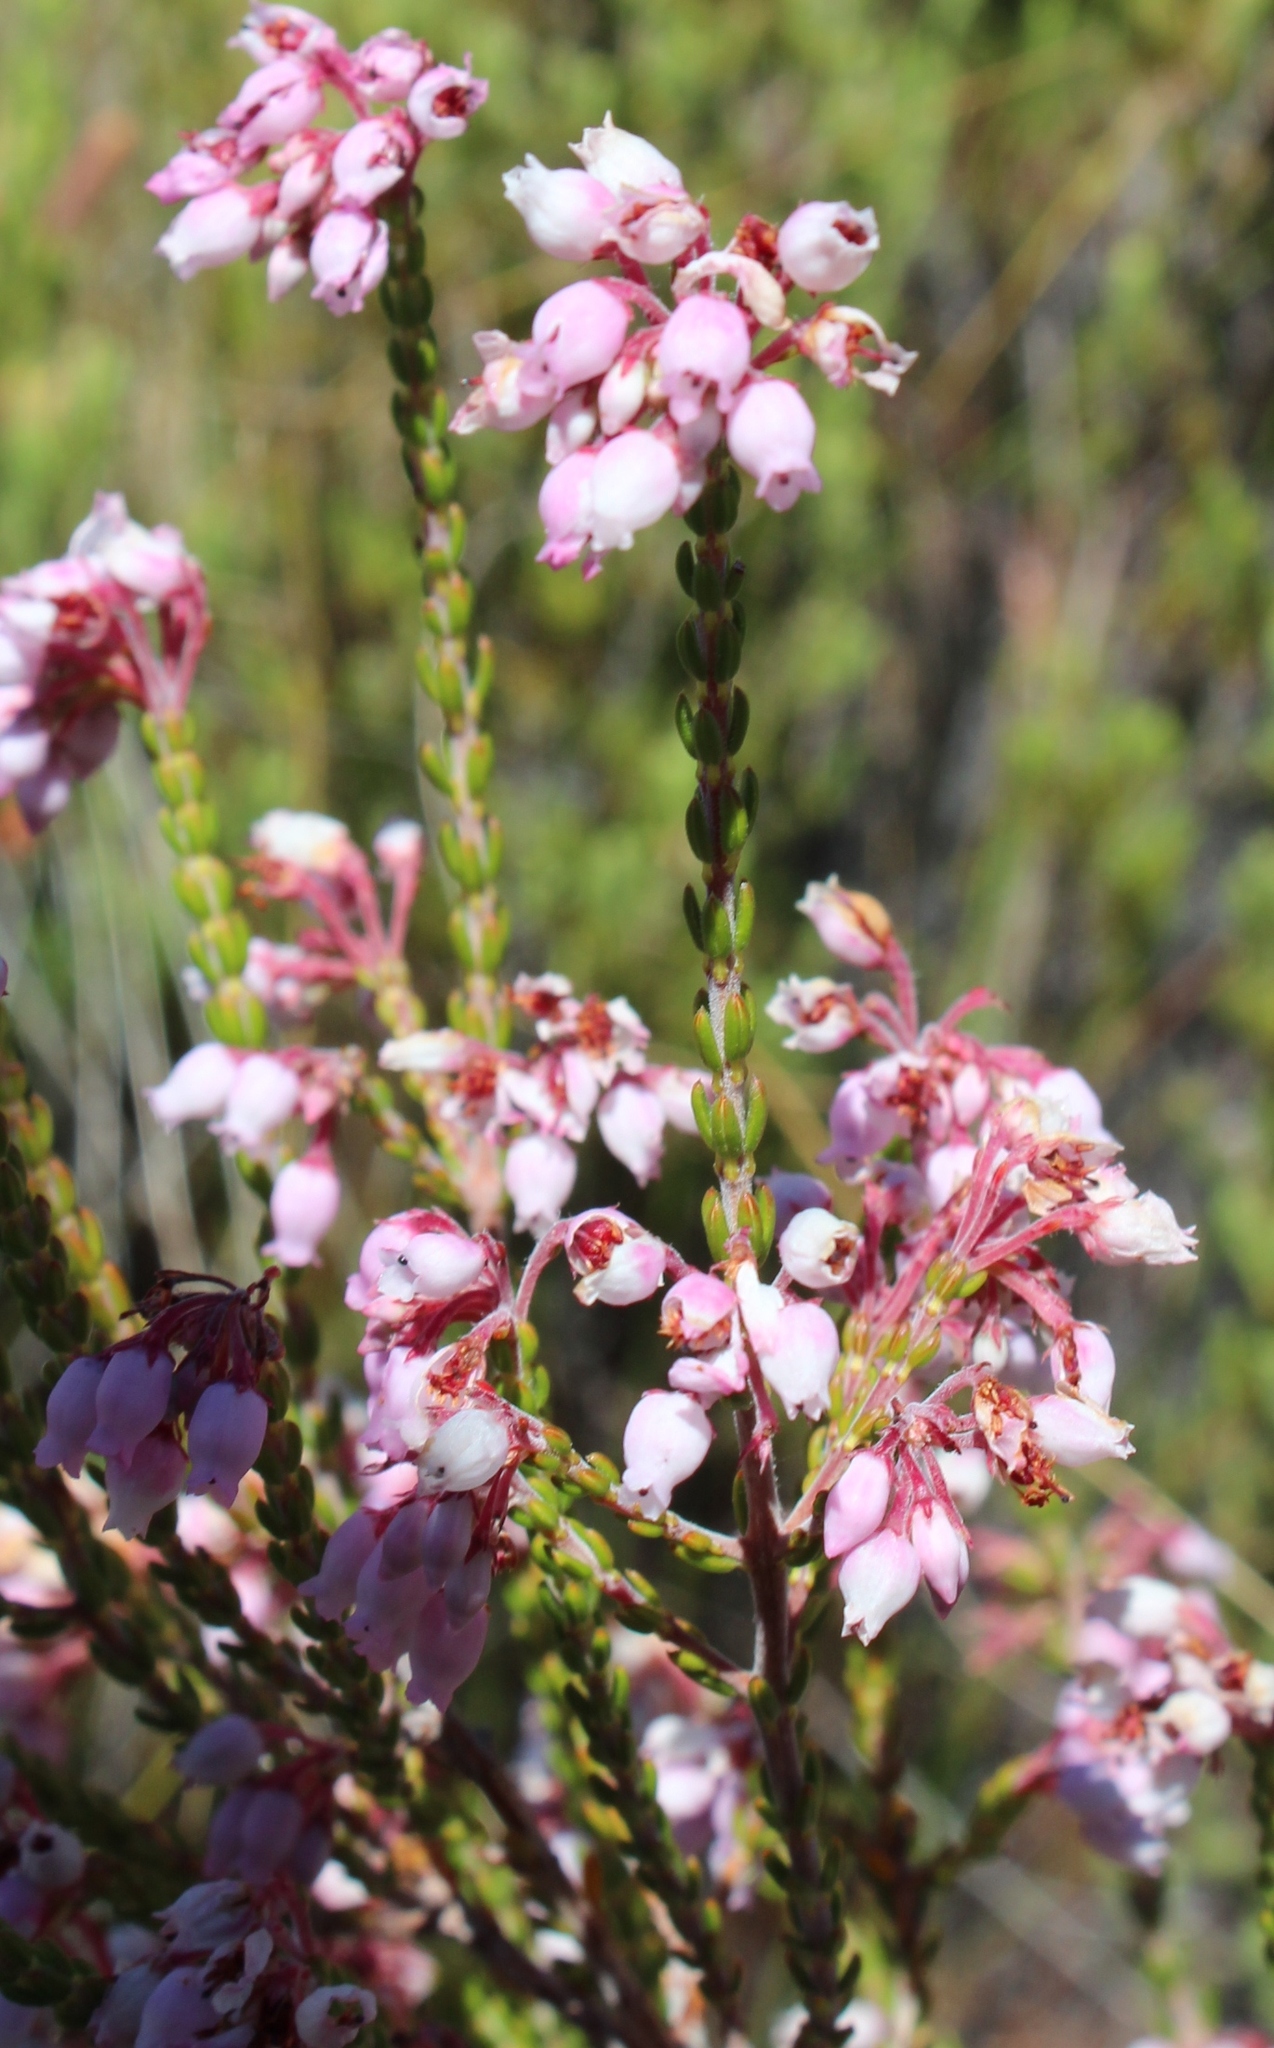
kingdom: Plantae
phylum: Tracheophyta
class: Magnoliopsida
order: Ericales
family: Ericaceae
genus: Erica
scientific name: Erica verecunda
